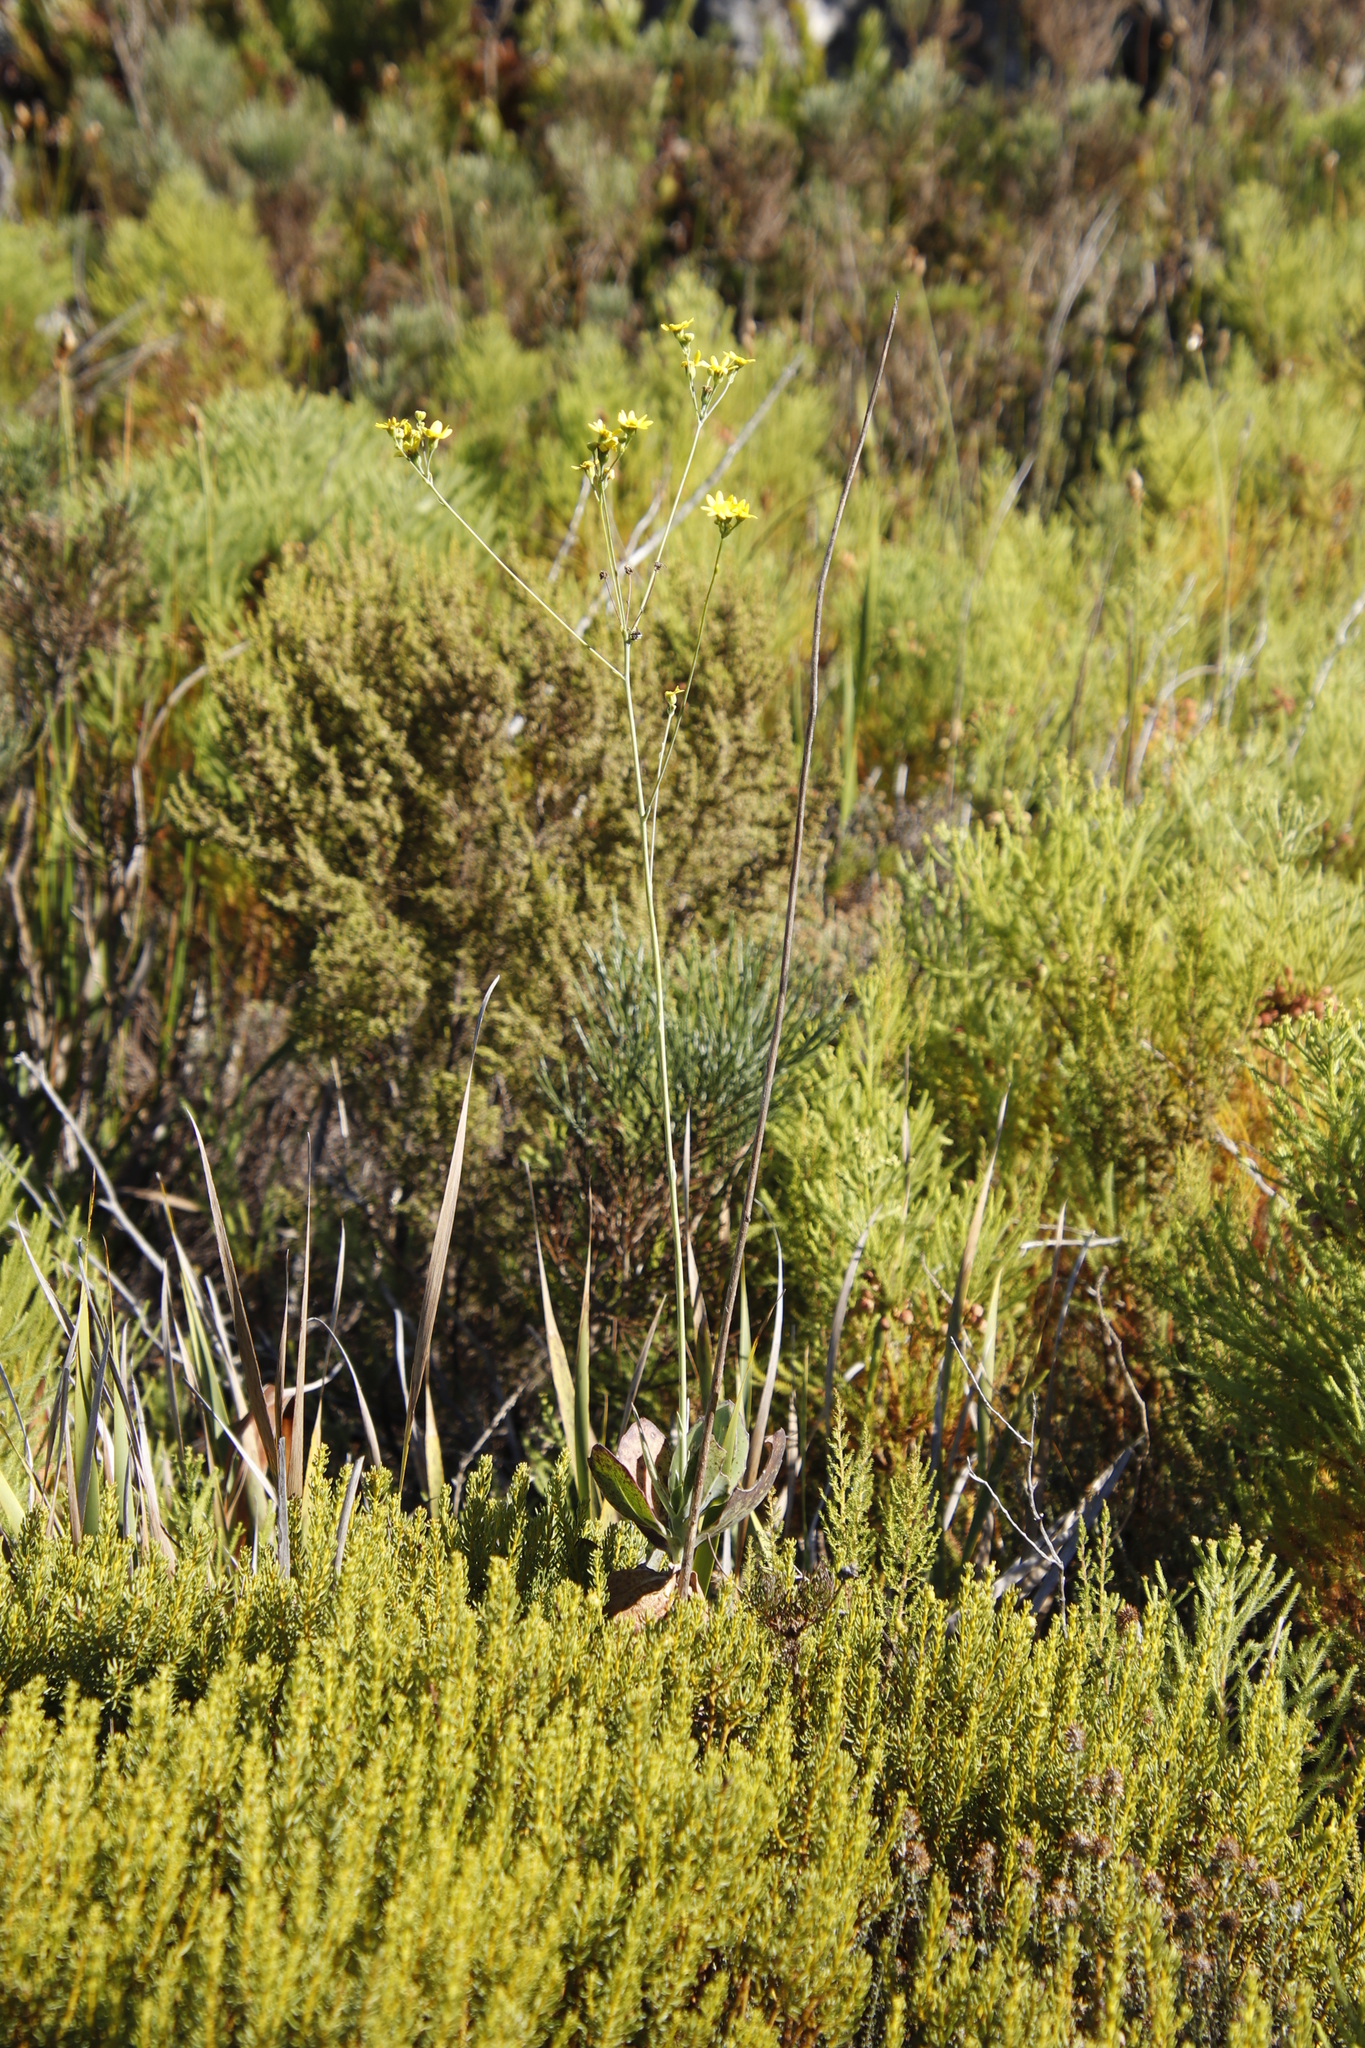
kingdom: Plantae
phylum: Tracheophyta
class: Magnoliopsida
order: Asterales
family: Asteraceae
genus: Othonna
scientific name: Othonna quinquedentata
